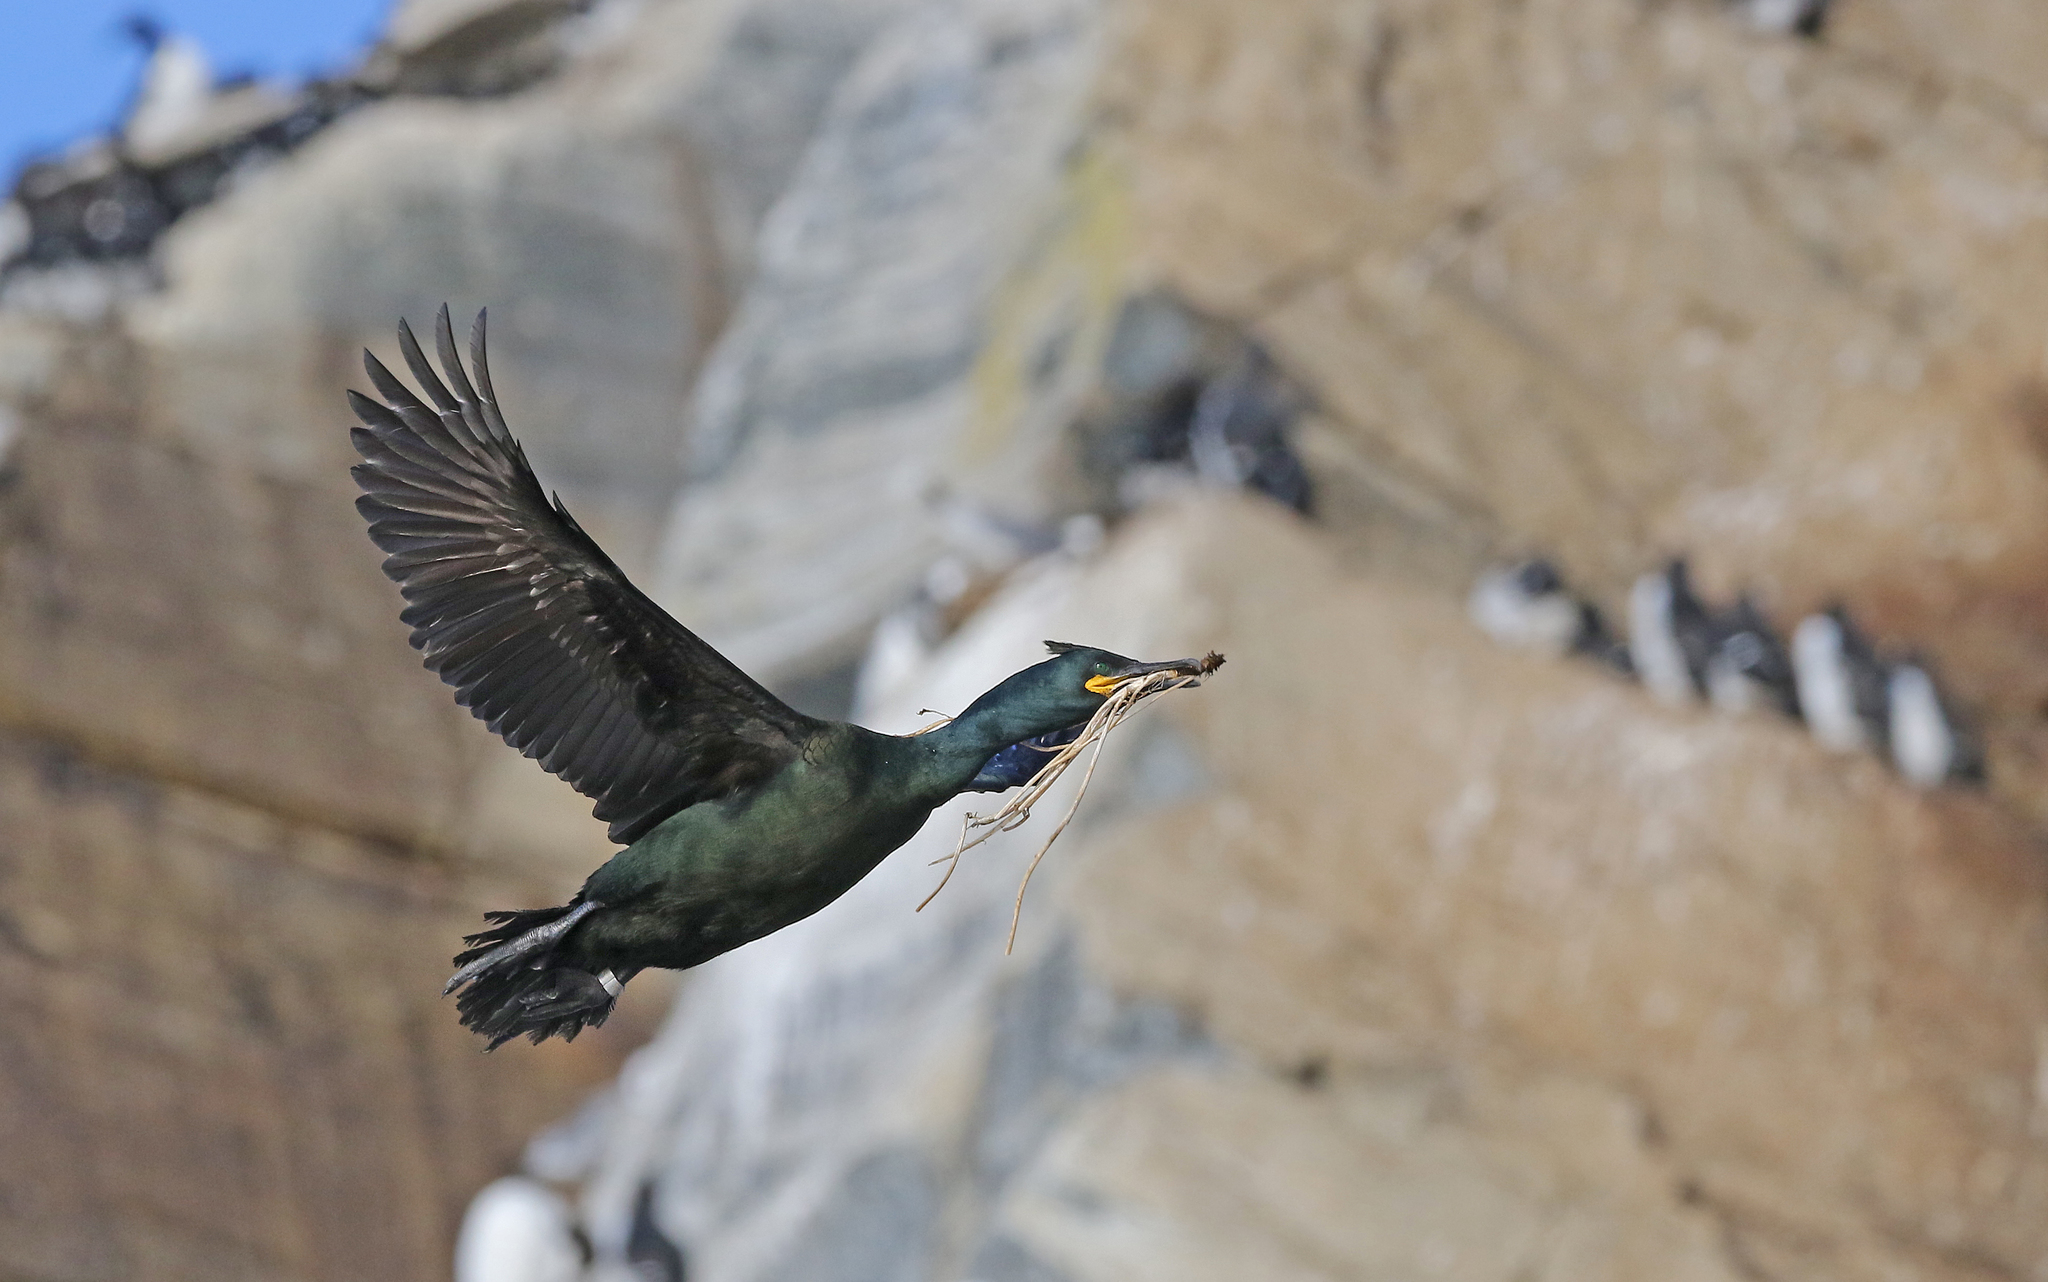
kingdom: Animalia
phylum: Chordata
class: Aves
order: Suliformes
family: Phalacrocoracidae
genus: Phalacrocorax
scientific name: Phalacrocorax aristotelis
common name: European shag
